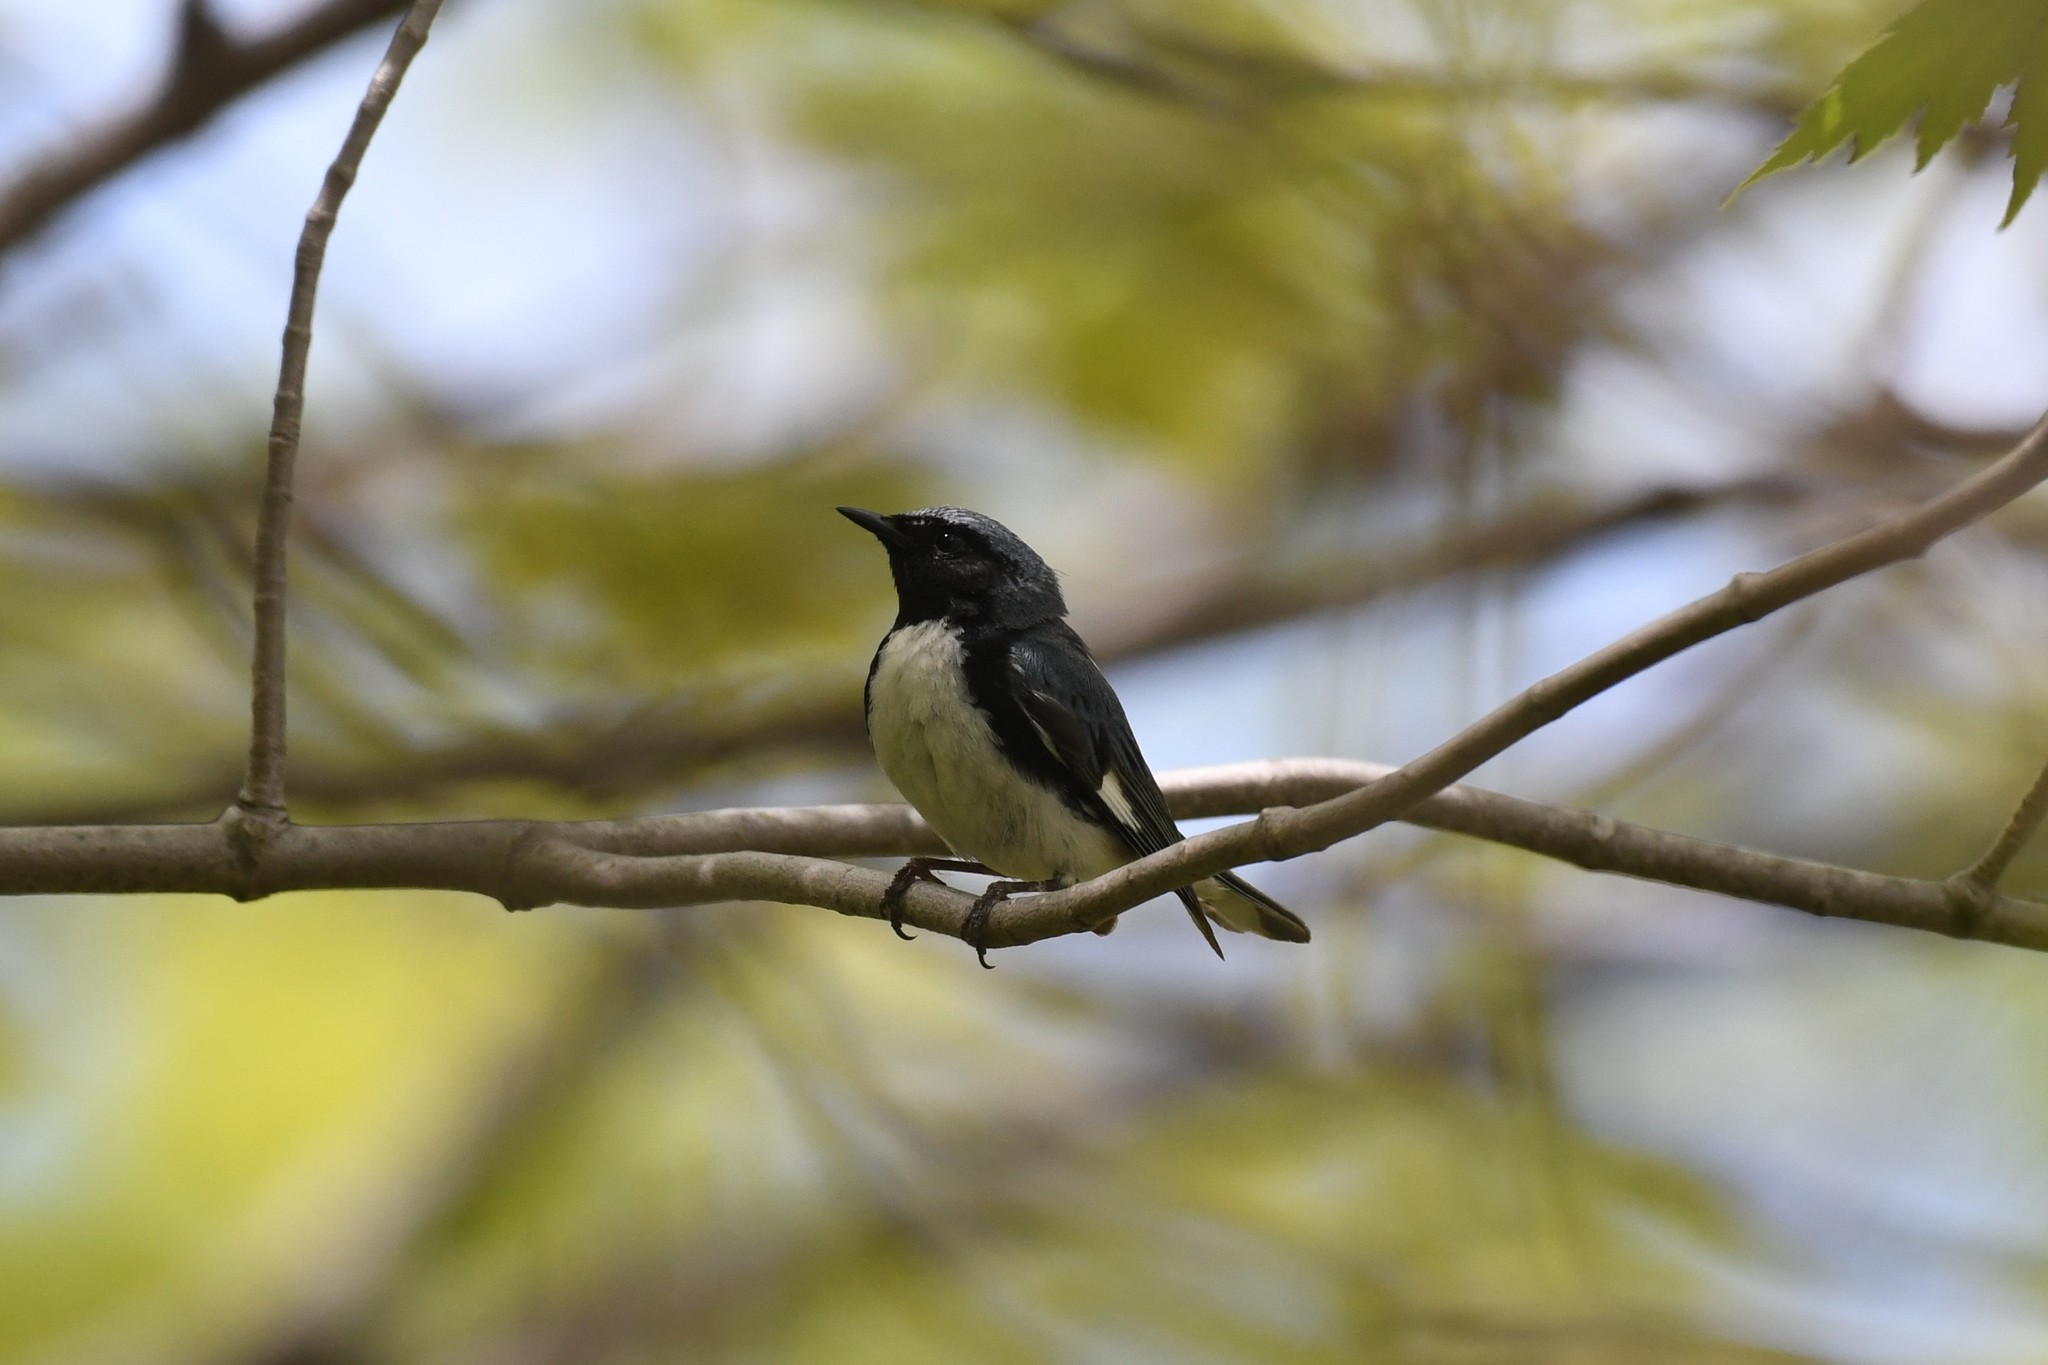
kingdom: Animalia
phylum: Chordata
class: Aves
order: Passeriformes
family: Parulidae
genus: Setophaga
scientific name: Setophaga caerulescens
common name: Black-throated blue warbler
